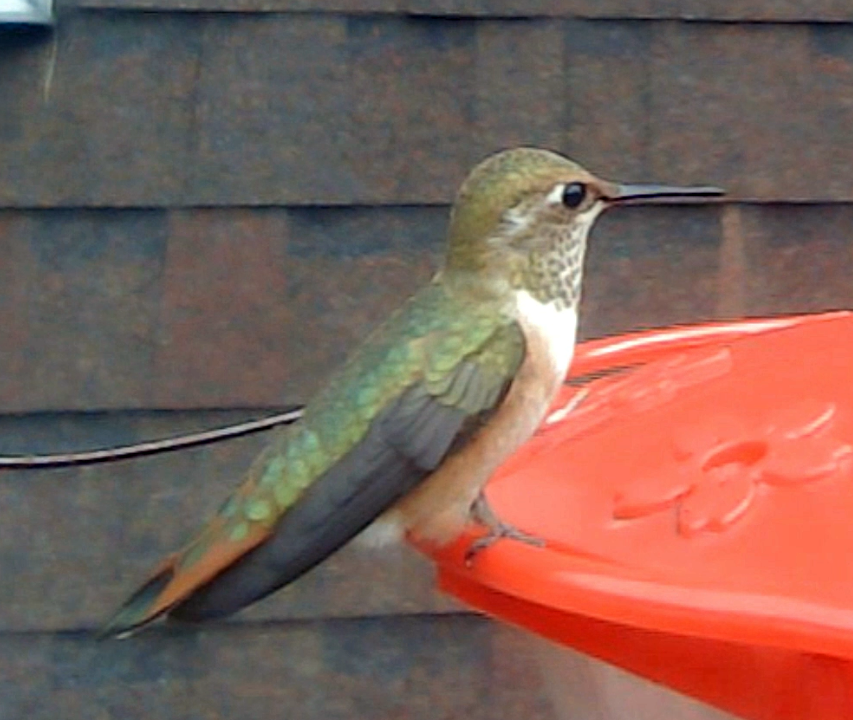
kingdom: Animalia
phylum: Chordata
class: Aves
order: Apodiformes
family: Trochilidae
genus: Selasphorus
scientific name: Selasphorus rufus
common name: Rufous hummingbird
